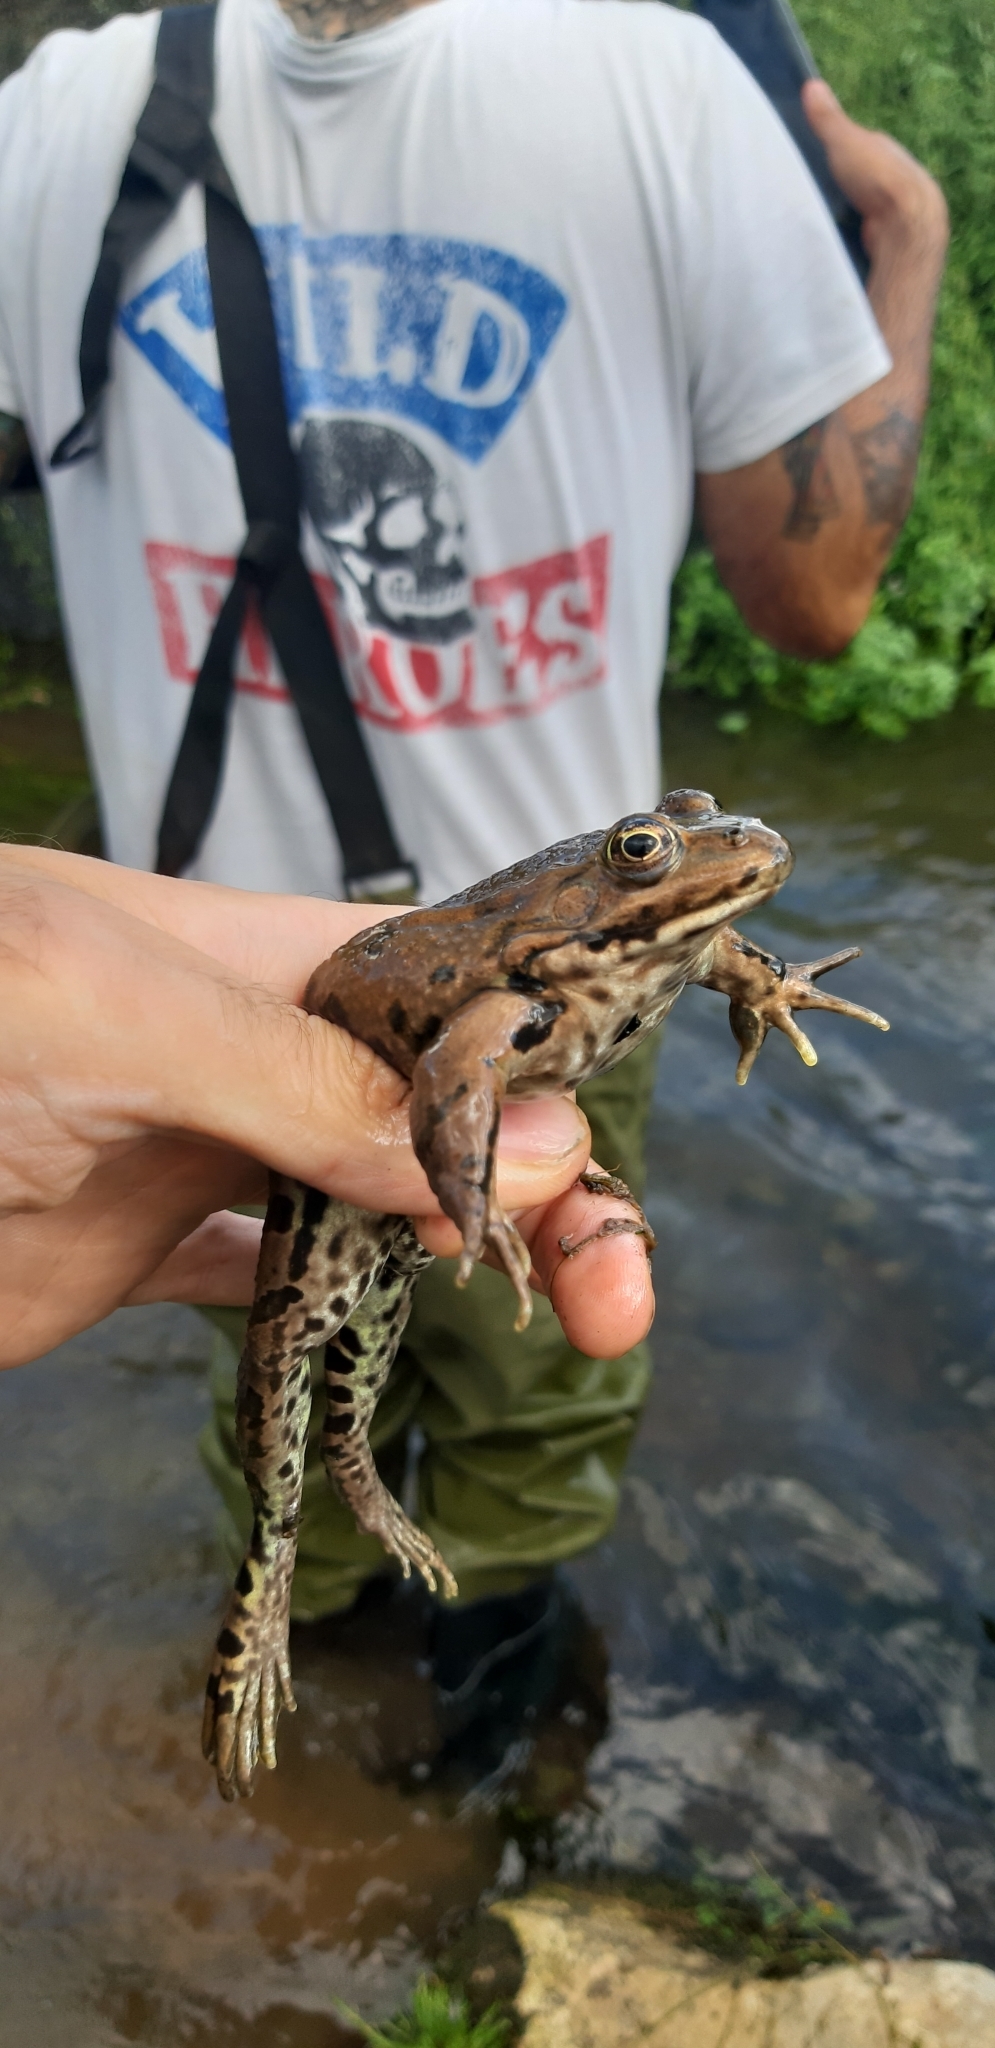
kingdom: Animalia
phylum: Chordata
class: Amphibia
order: Anura
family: Ranidae
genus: Pelophylax
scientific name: Pelophylax
